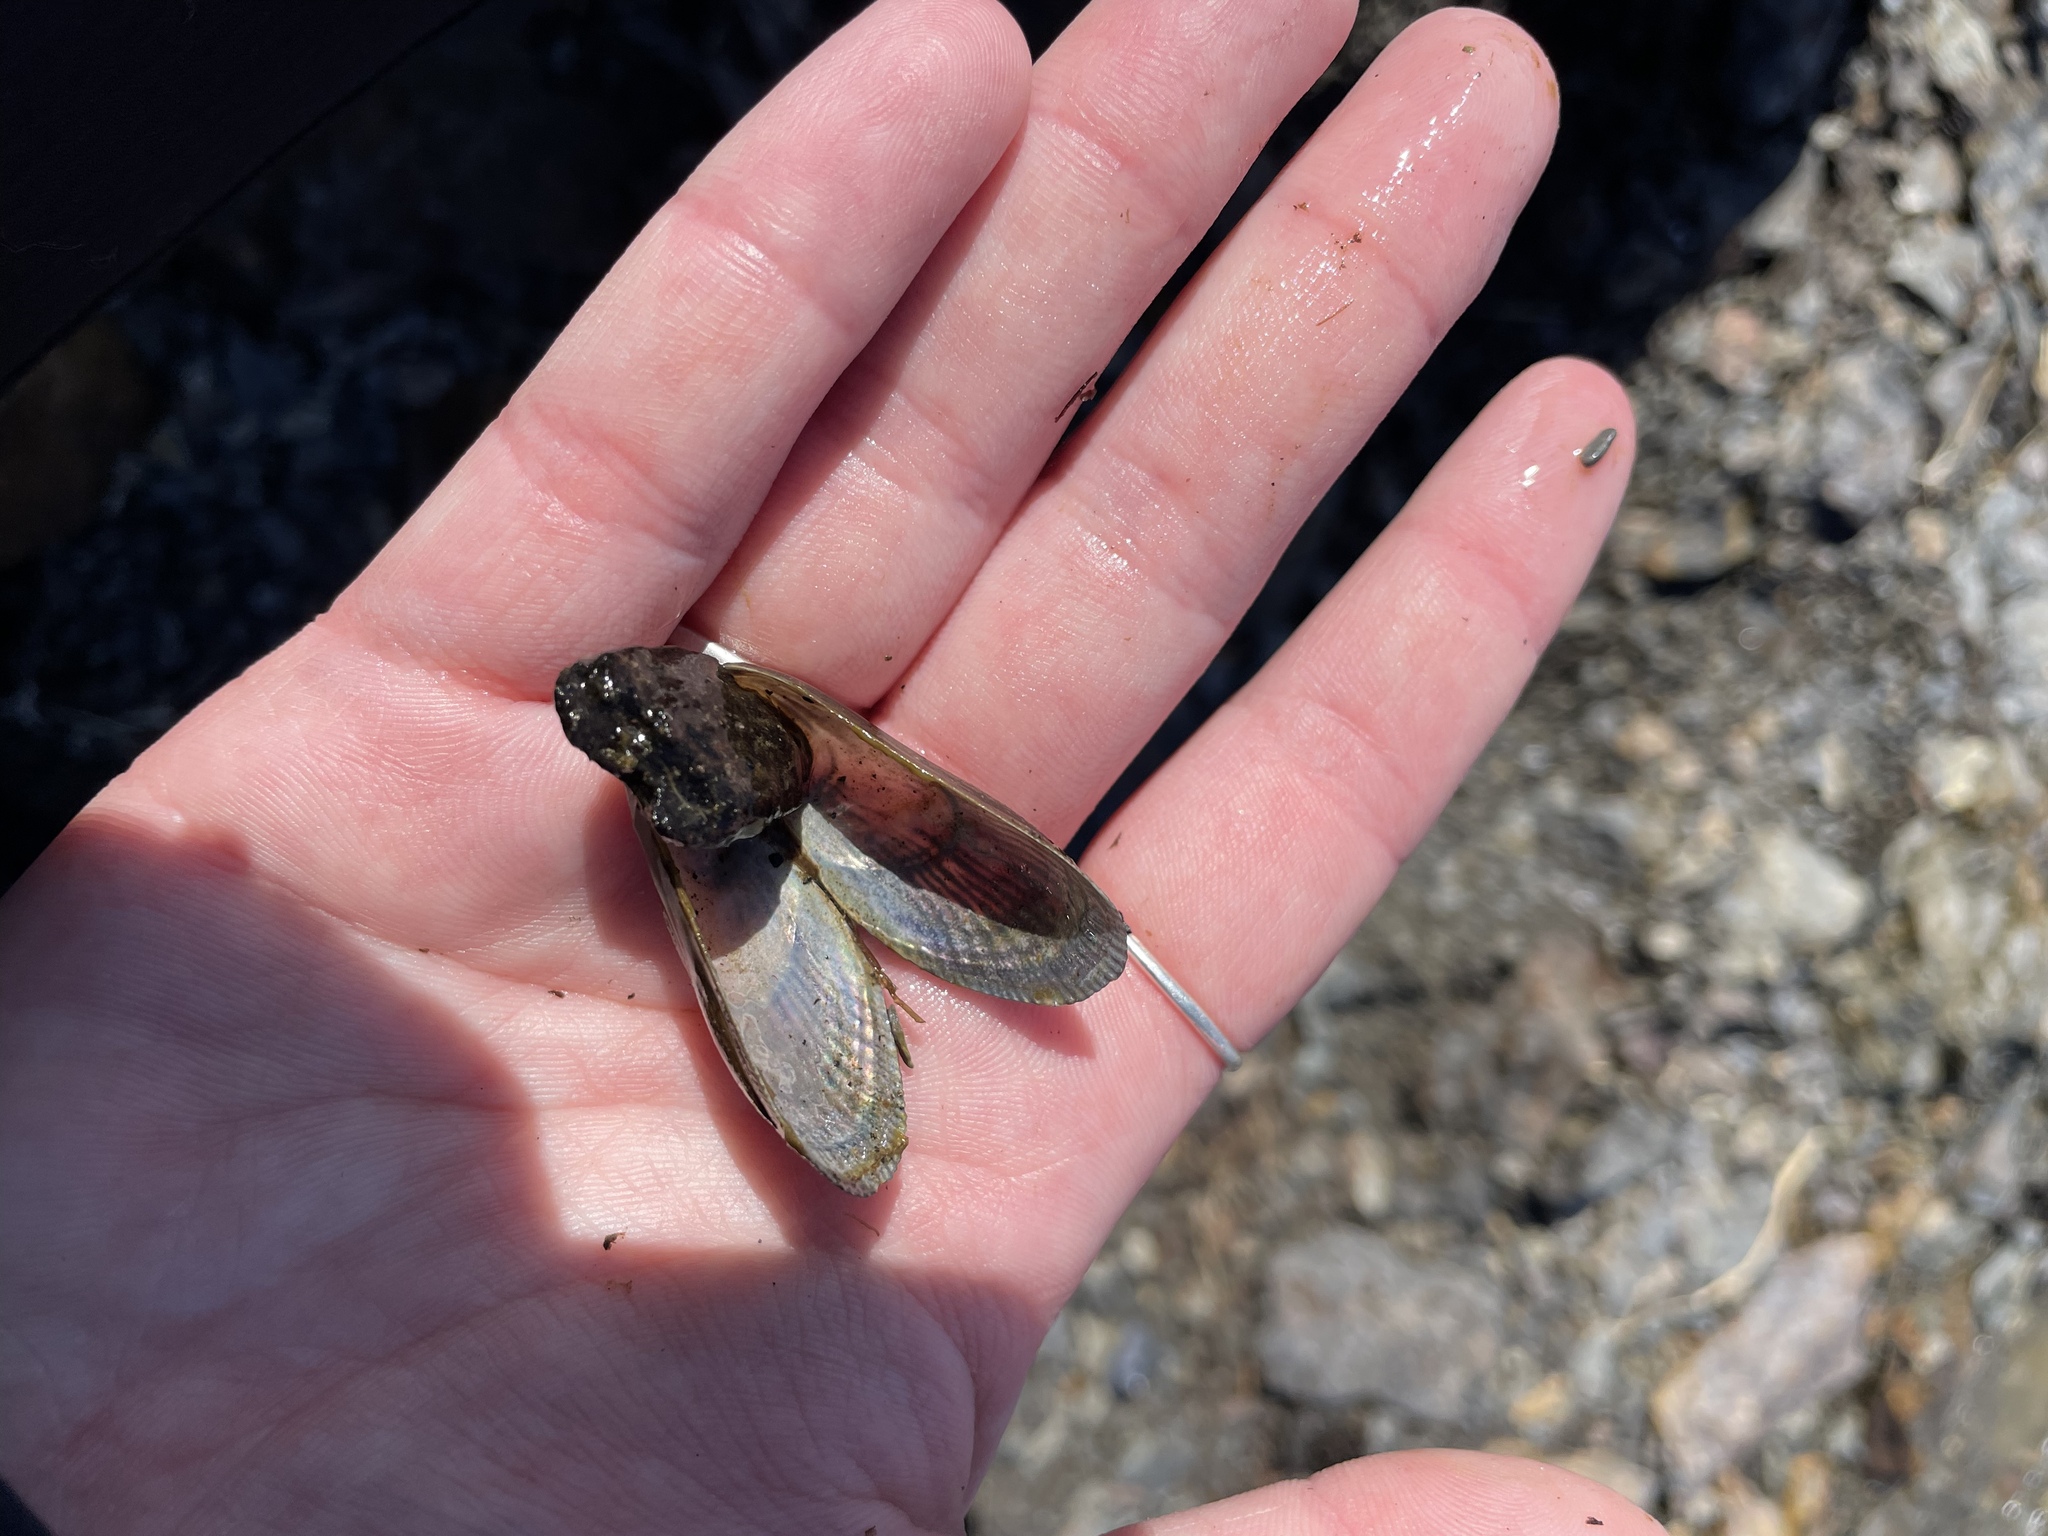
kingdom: Animalia
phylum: Mollusca
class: Bivalvia
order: Mytilida
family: Mytilidae
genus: Geukensia
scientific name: Geukensia demissa
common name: Ribbed mussel
